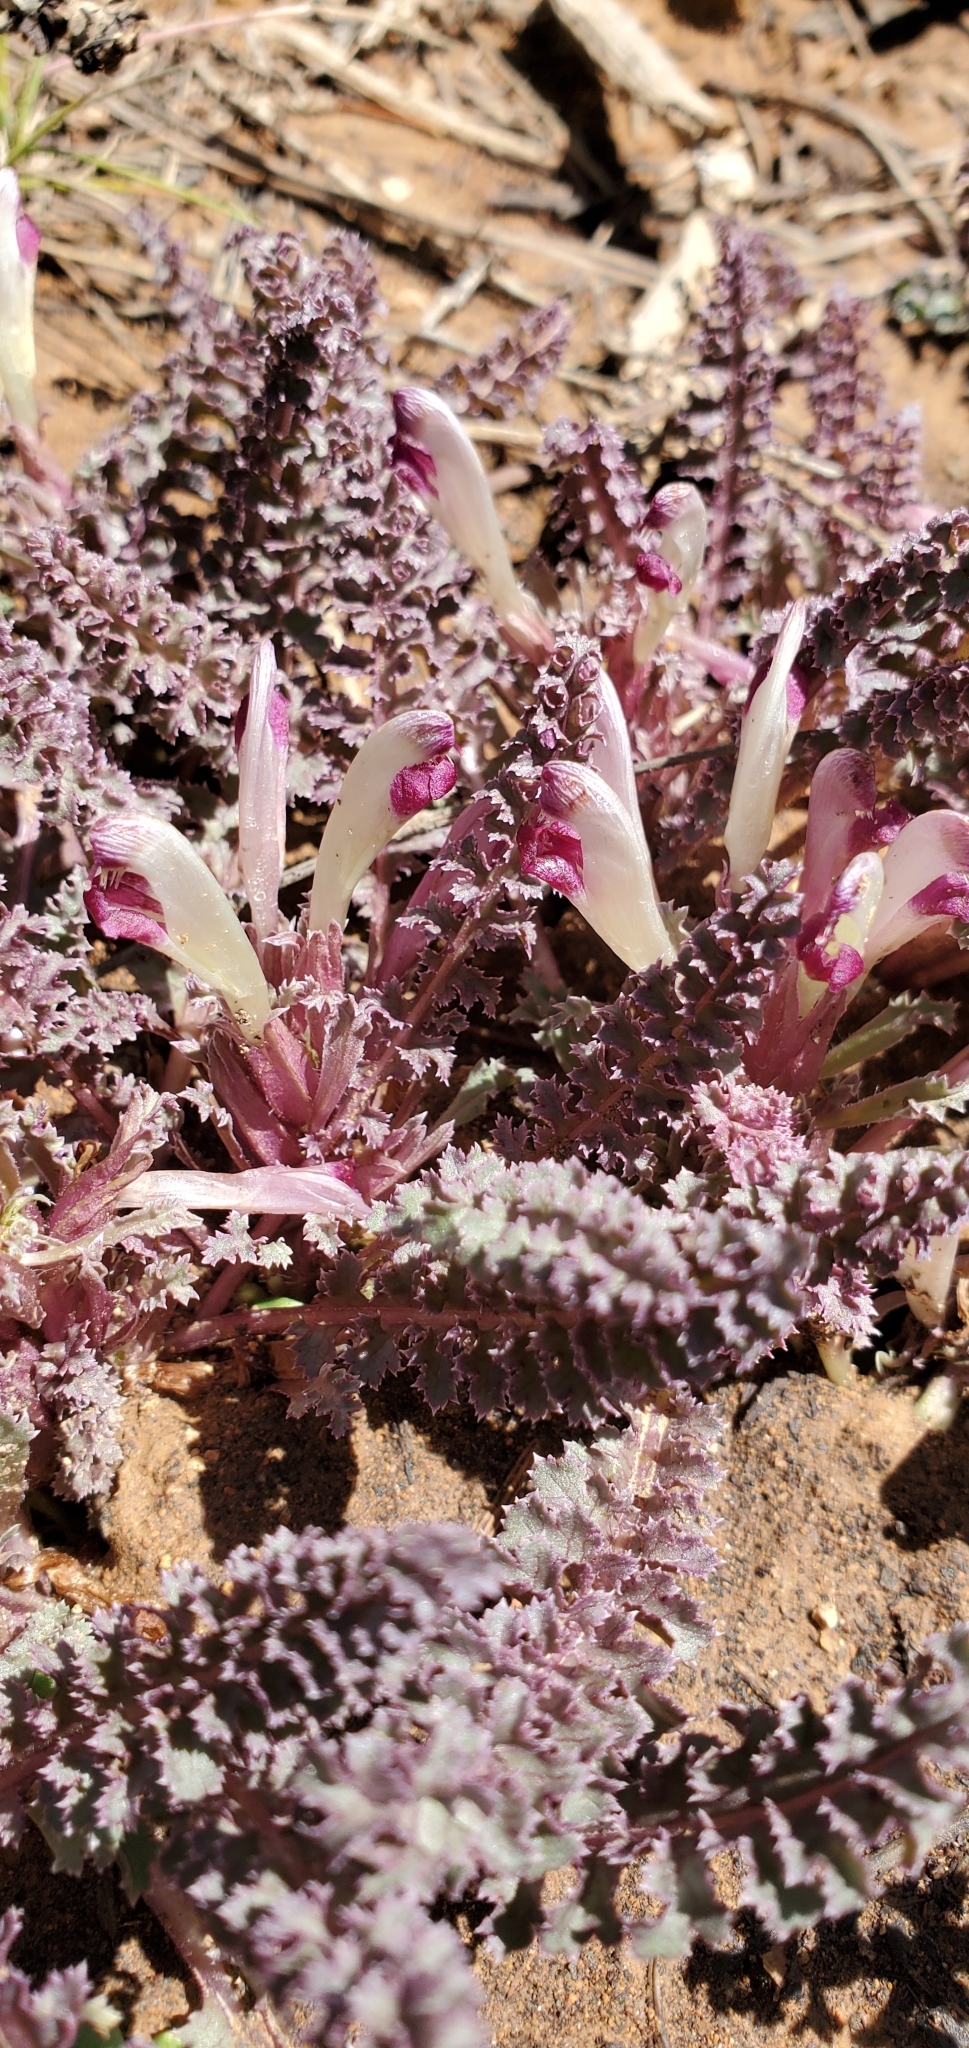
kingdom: Plantae
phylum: Tracheophyta
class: Magnoliopsida
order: Lamiales
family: Orobanchaceae
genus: Pedicularis
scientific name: Pedicularis centranthera
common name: Dwarf lousewort
